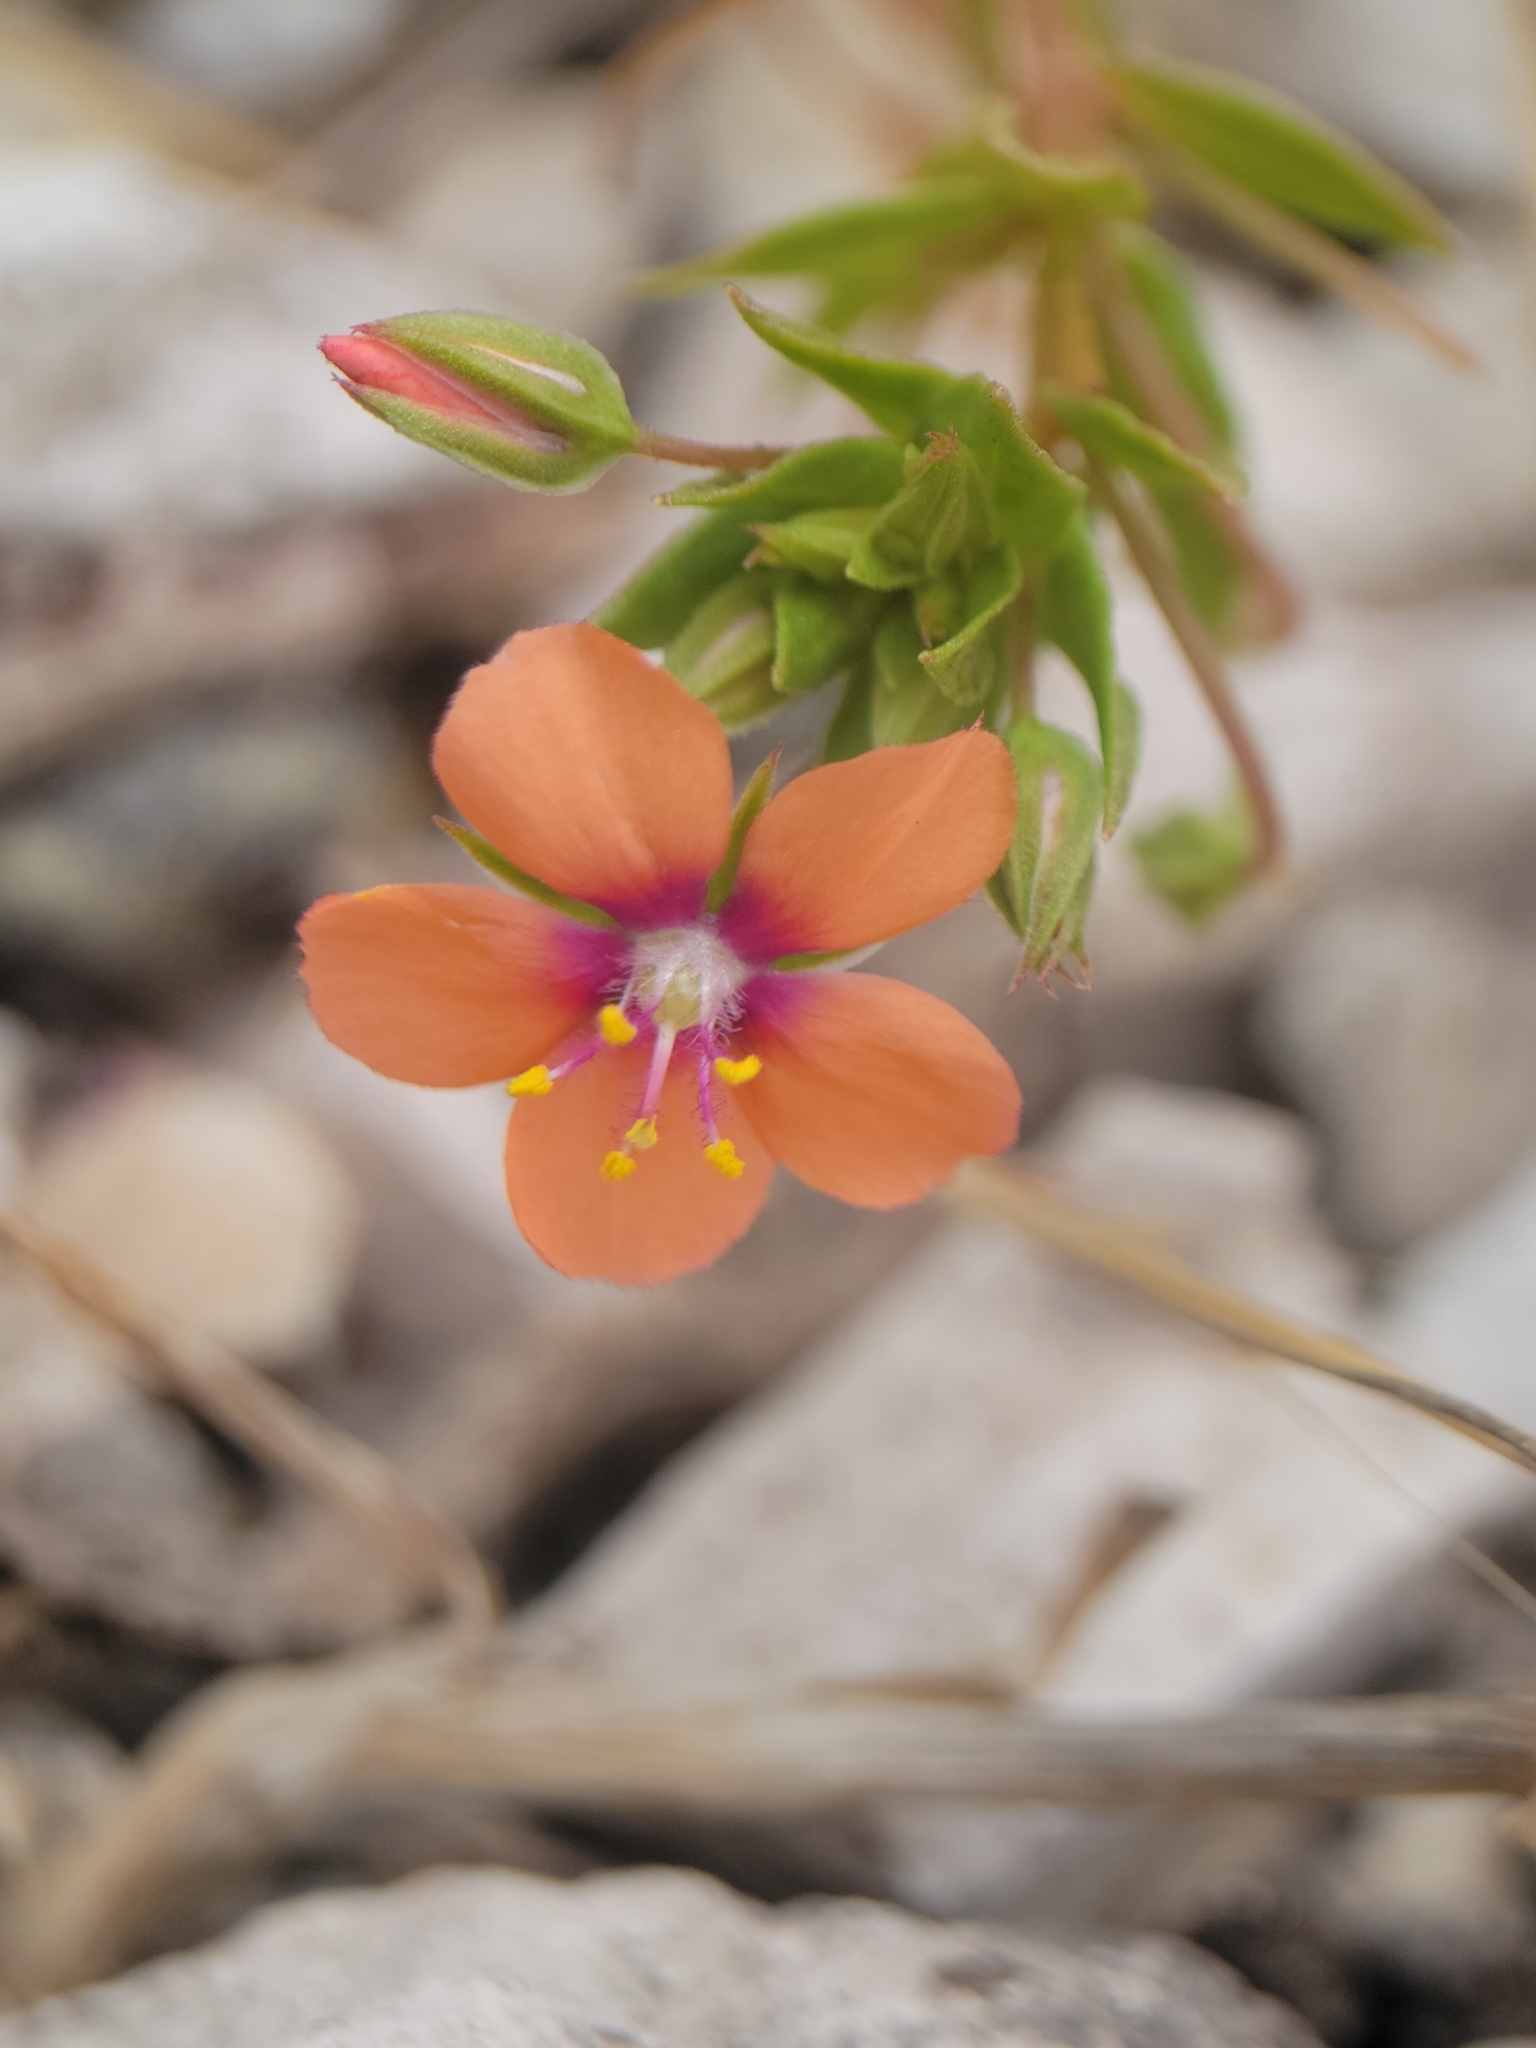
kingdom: Plantae
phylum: Tracheophyta
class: Magnoliopsida
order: Ericales
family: Primulaceae
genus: Lysimachia
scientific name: Lysimachia arvensis
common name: Scarlet pimpernel
